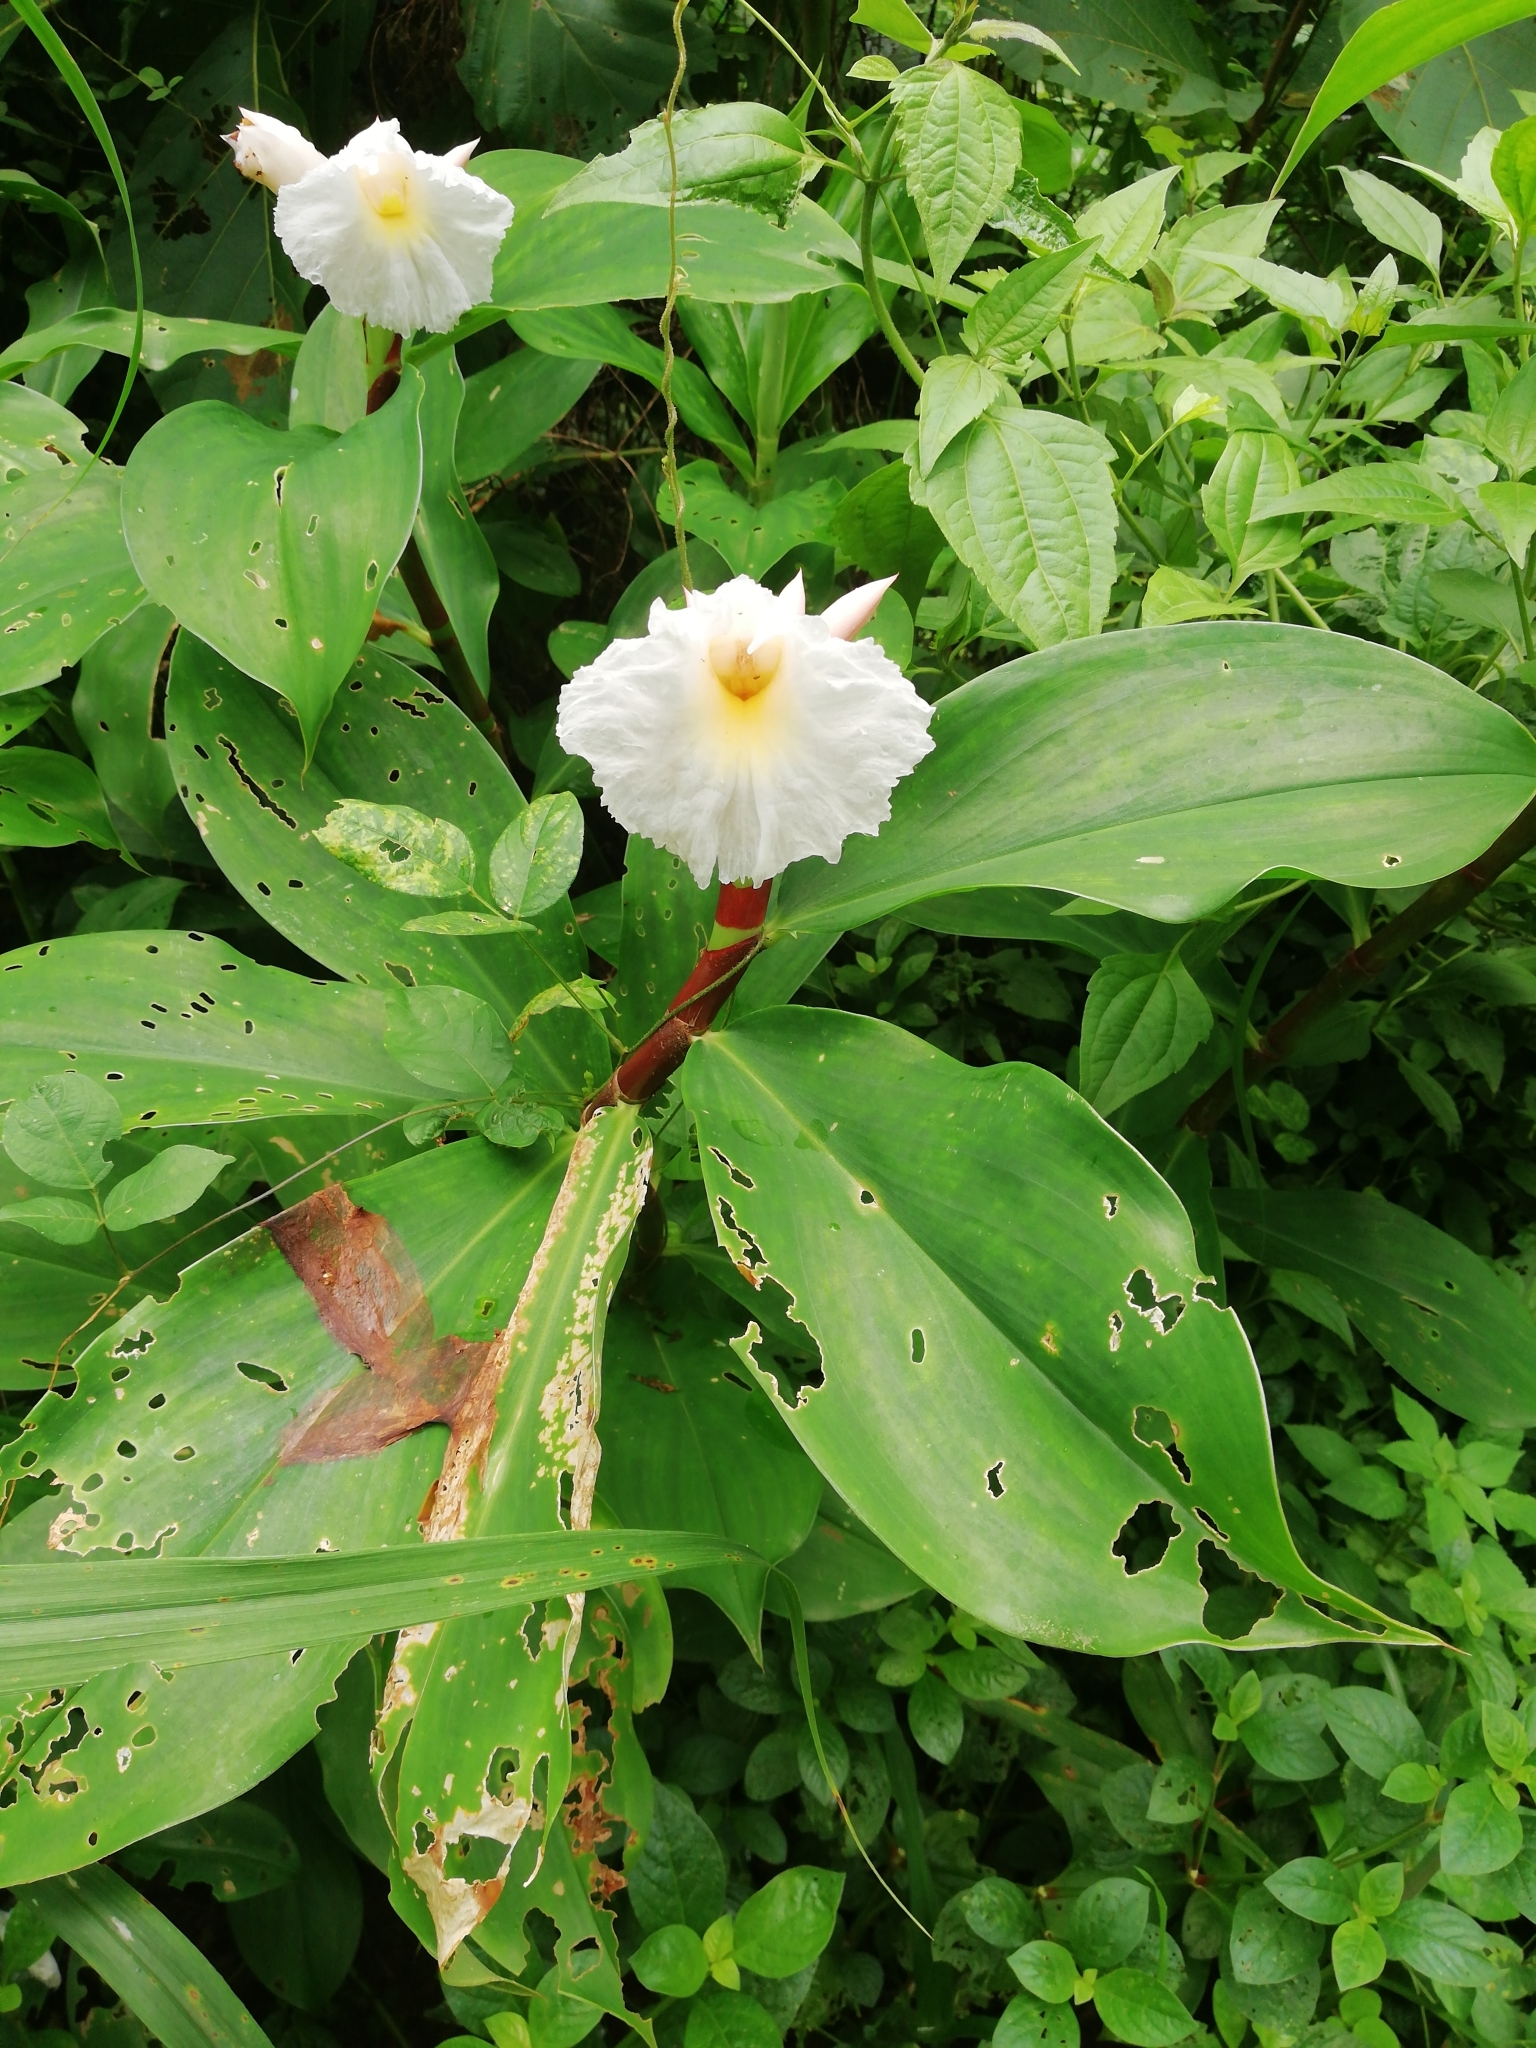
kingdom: Plantae
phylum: Tracheophyta
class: Liliopsida
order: Zingiberales
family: Costaceae
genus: Hellenia
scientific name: Hellenia speciosa
